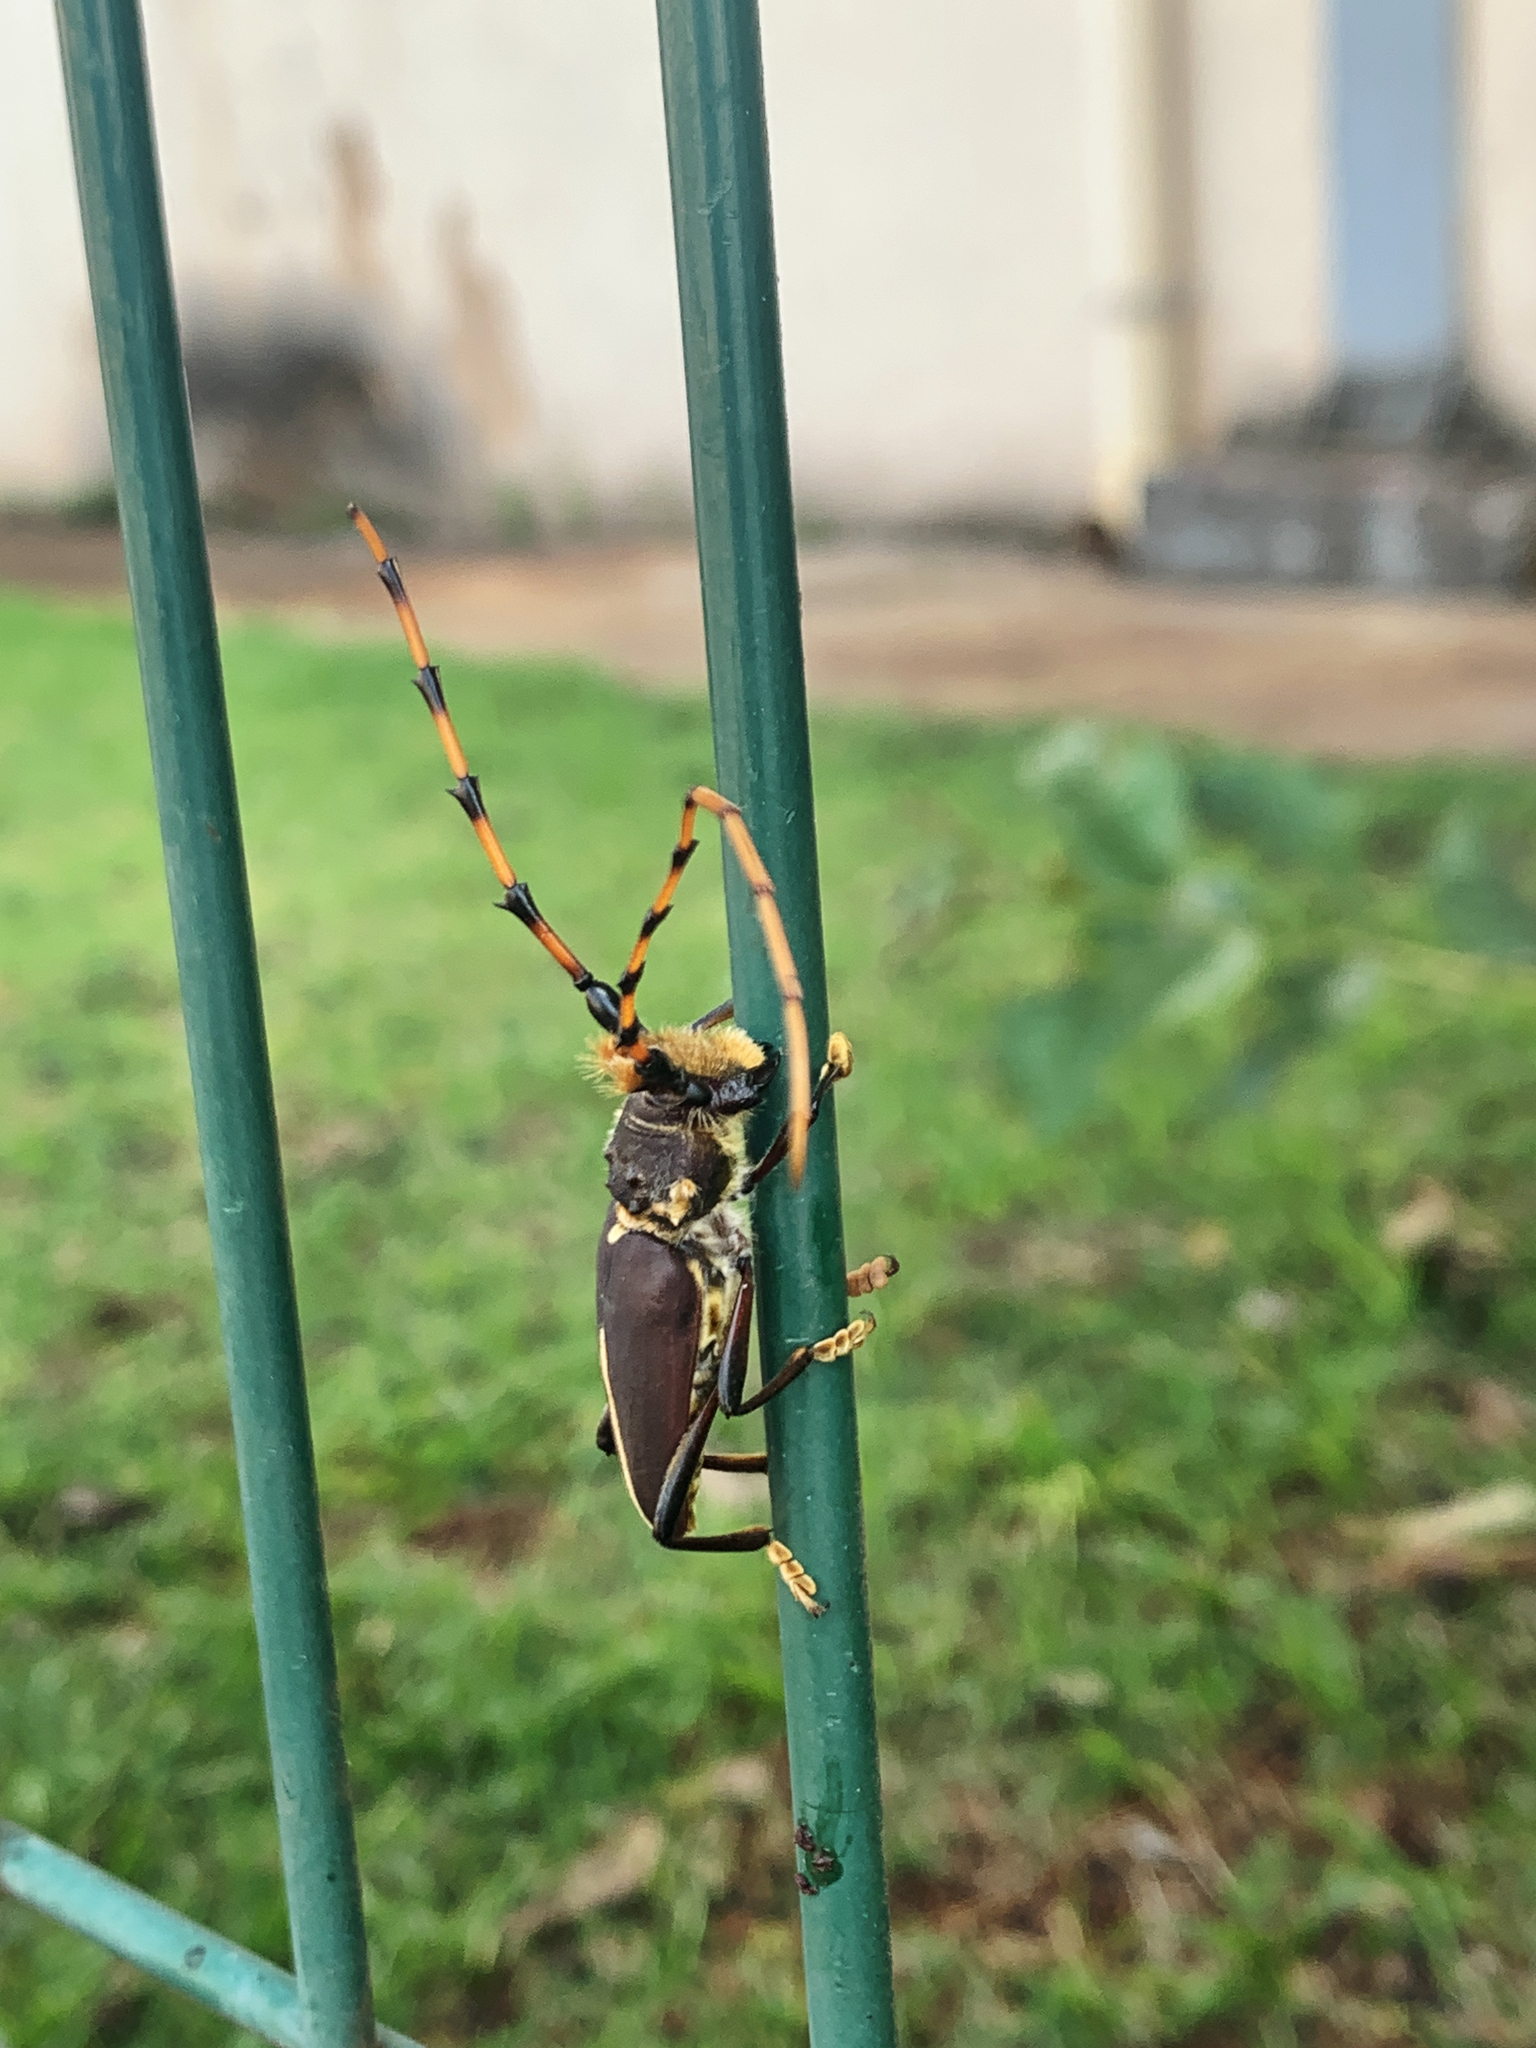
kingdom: Animalia
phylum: Arthropoda
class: Insecta
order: Coleoptera
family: Cerambycidae
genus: Dorcacerus
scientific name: Dorcacerus barbatus
